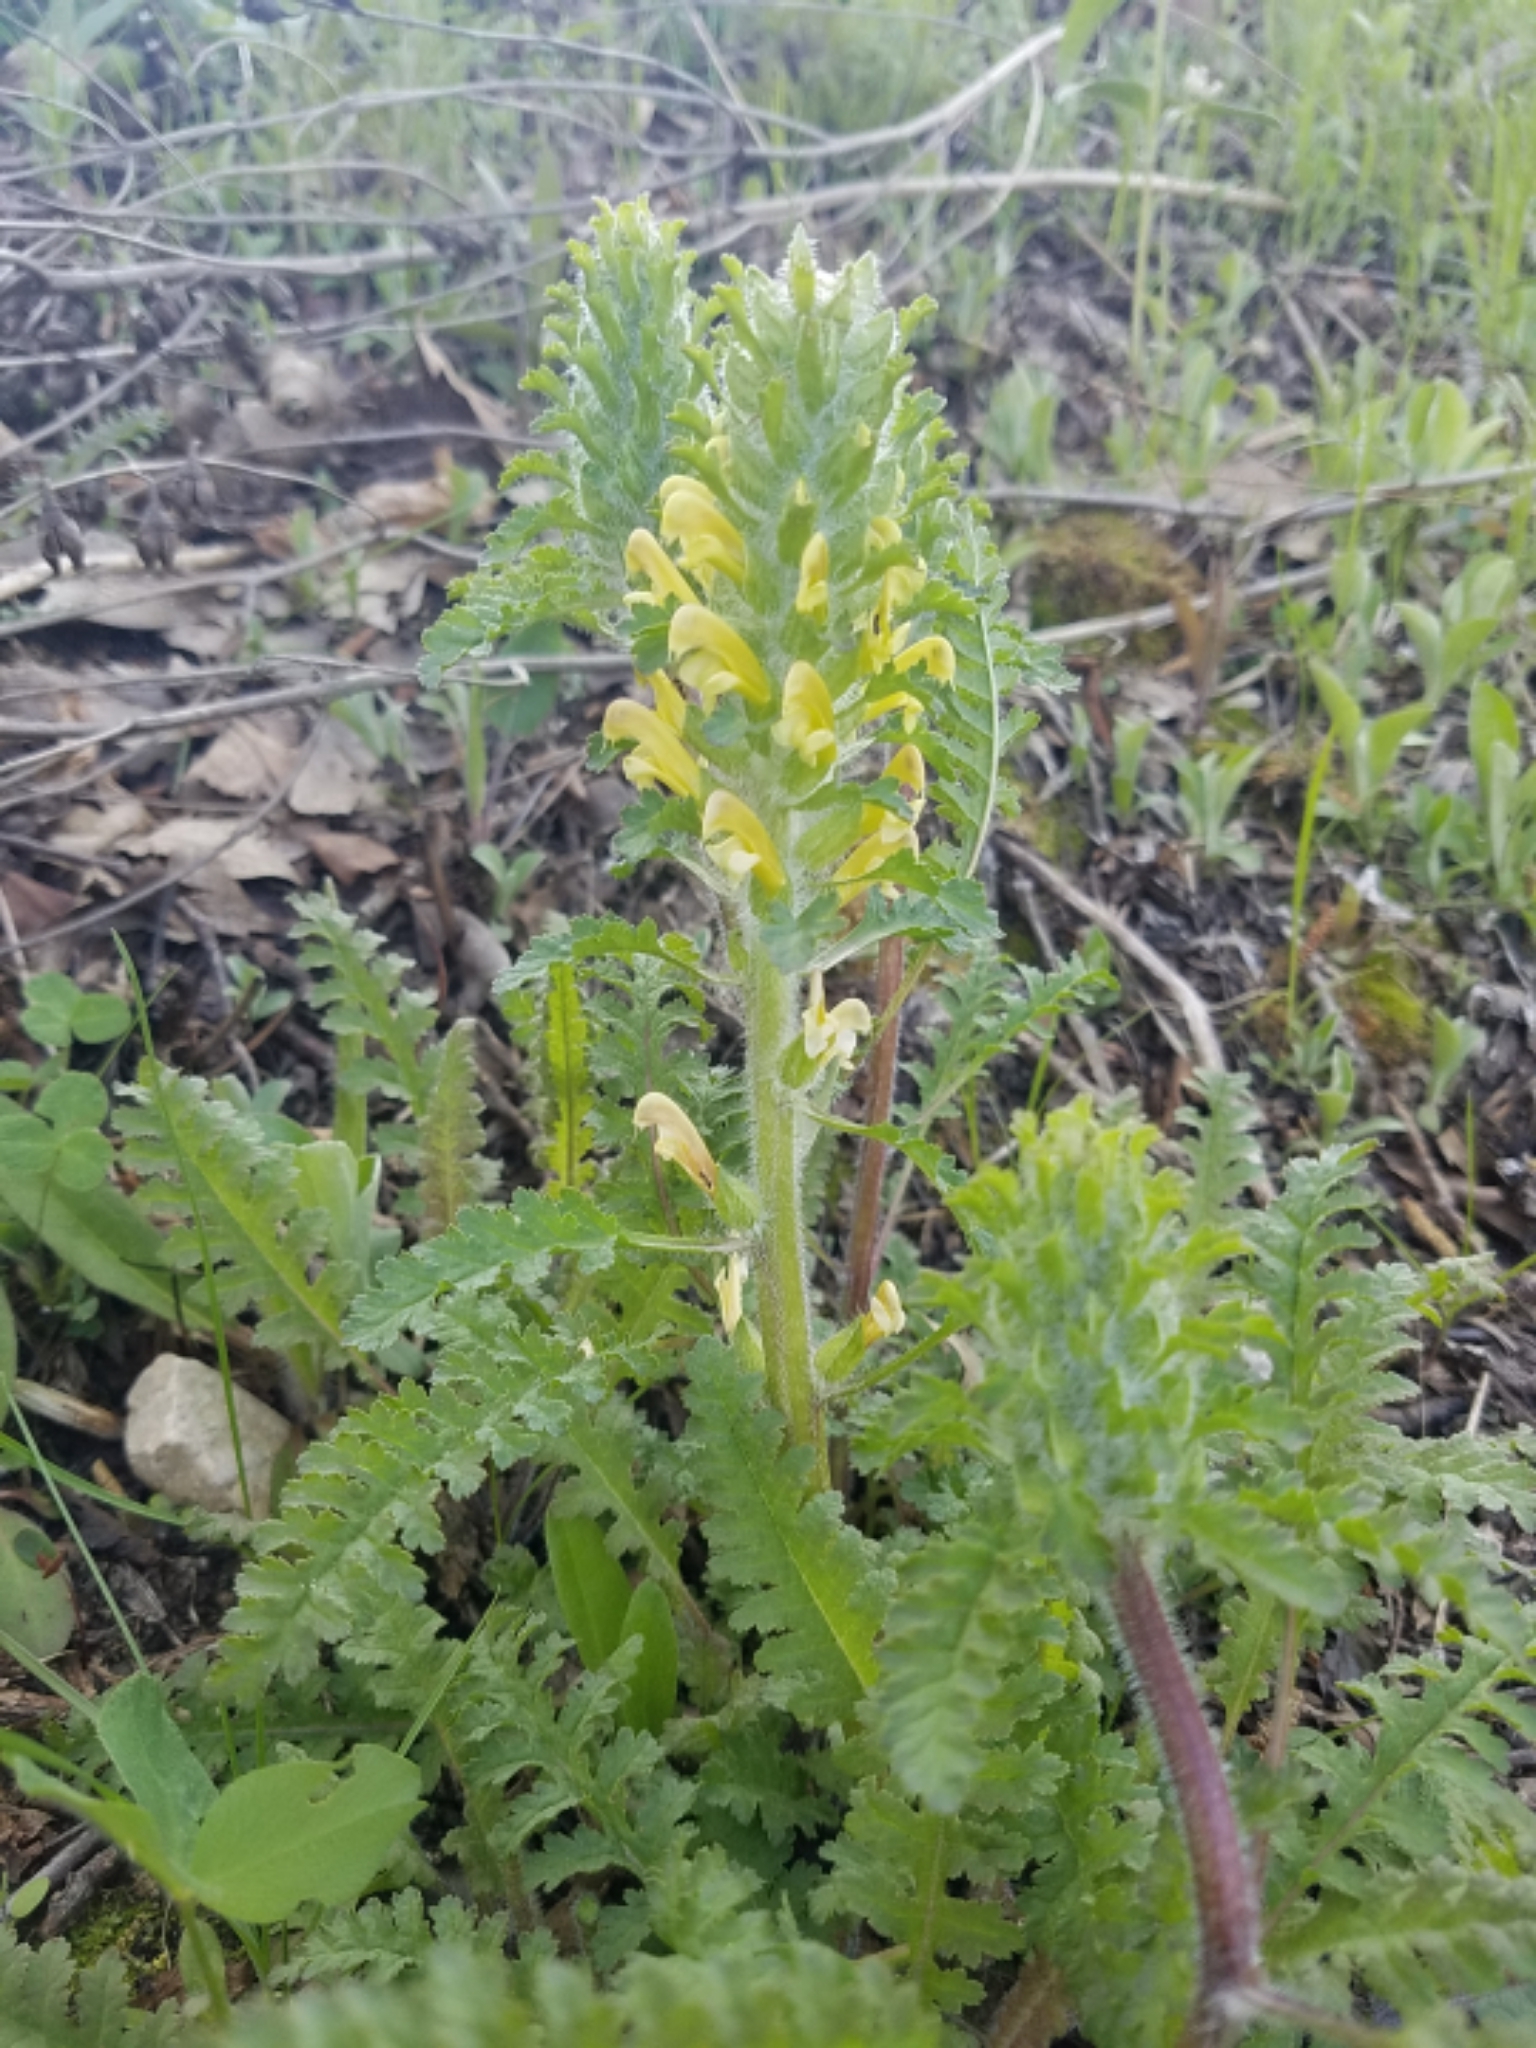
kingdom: Plantae
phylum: Tracheophyta
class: Magnoliopsida
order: Lamiales
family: Orobanchaceae
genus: Pedicularis
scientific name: Pedicularis canadensis
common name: Early lousewort
